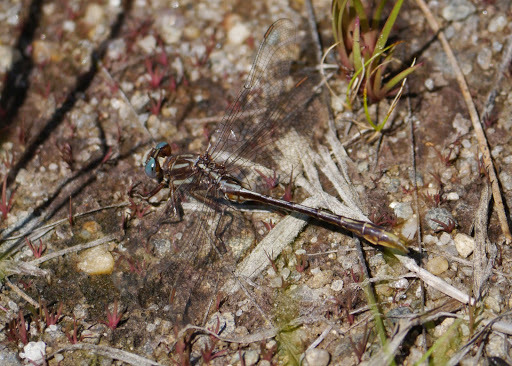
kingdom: Animalia
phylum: Arthropoda
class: Insecta
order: Odonata
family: Gomphidae
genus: Phanogomphus
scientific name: Phanogomphus exilis
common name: Lancet clubtail
